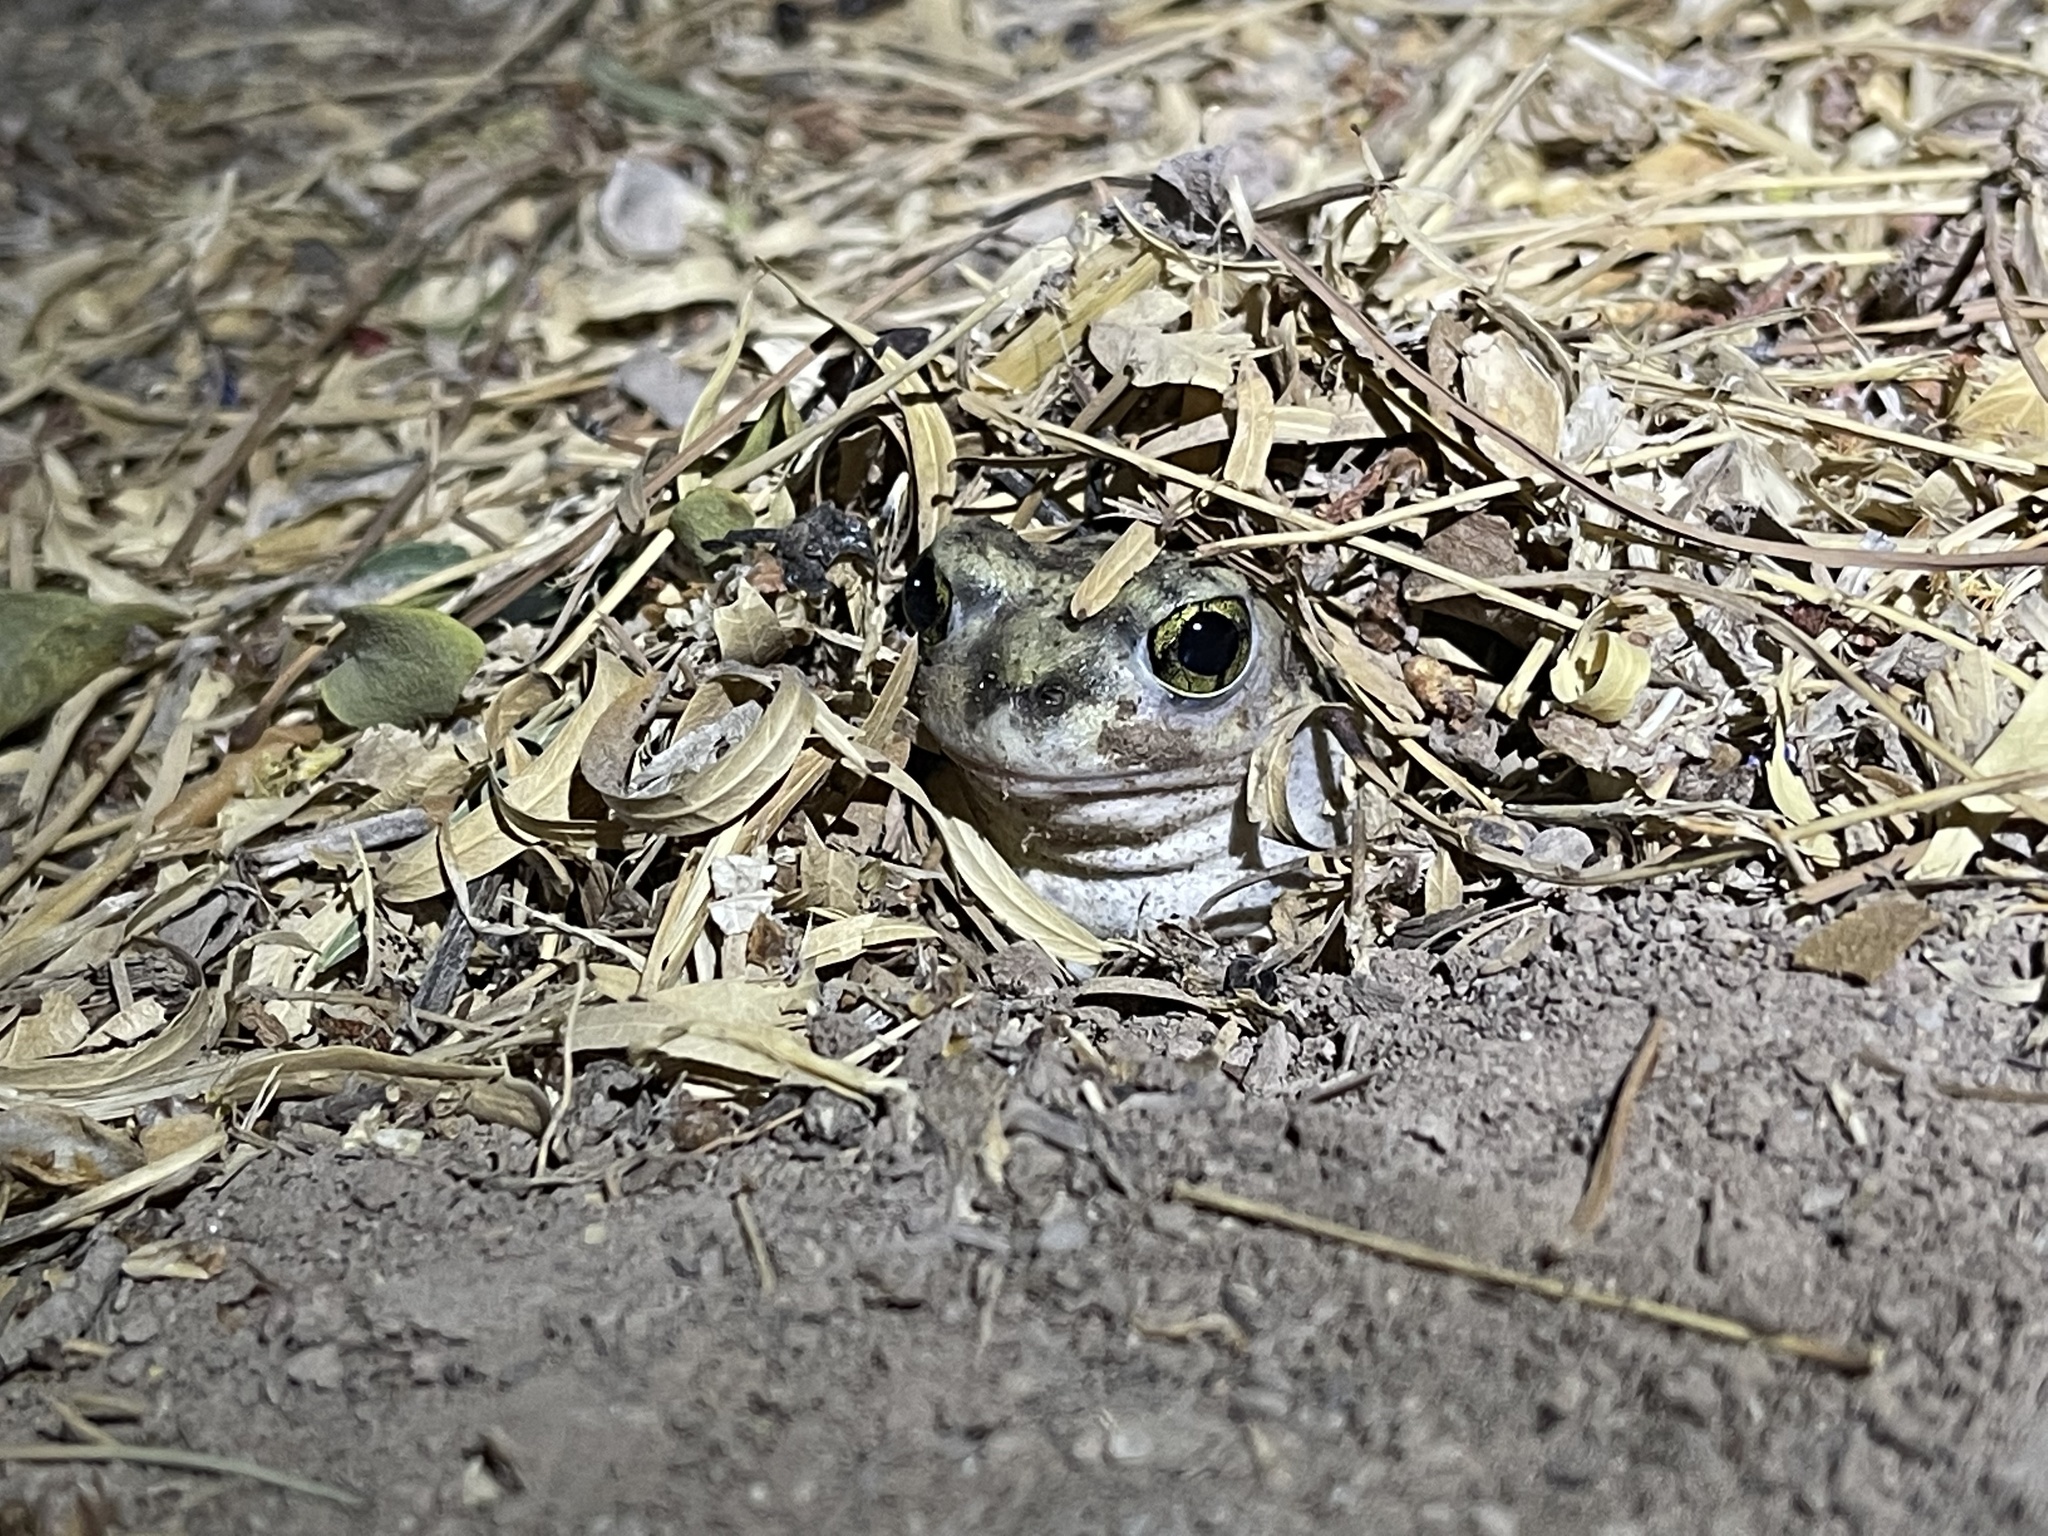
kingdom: Animalia
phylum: Chordata
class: Amphibia
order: Anura
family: Scaphiopodidae
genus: Scaphiopus
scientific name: Scaphiopus couchii
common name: Couch's spadefoot toad
